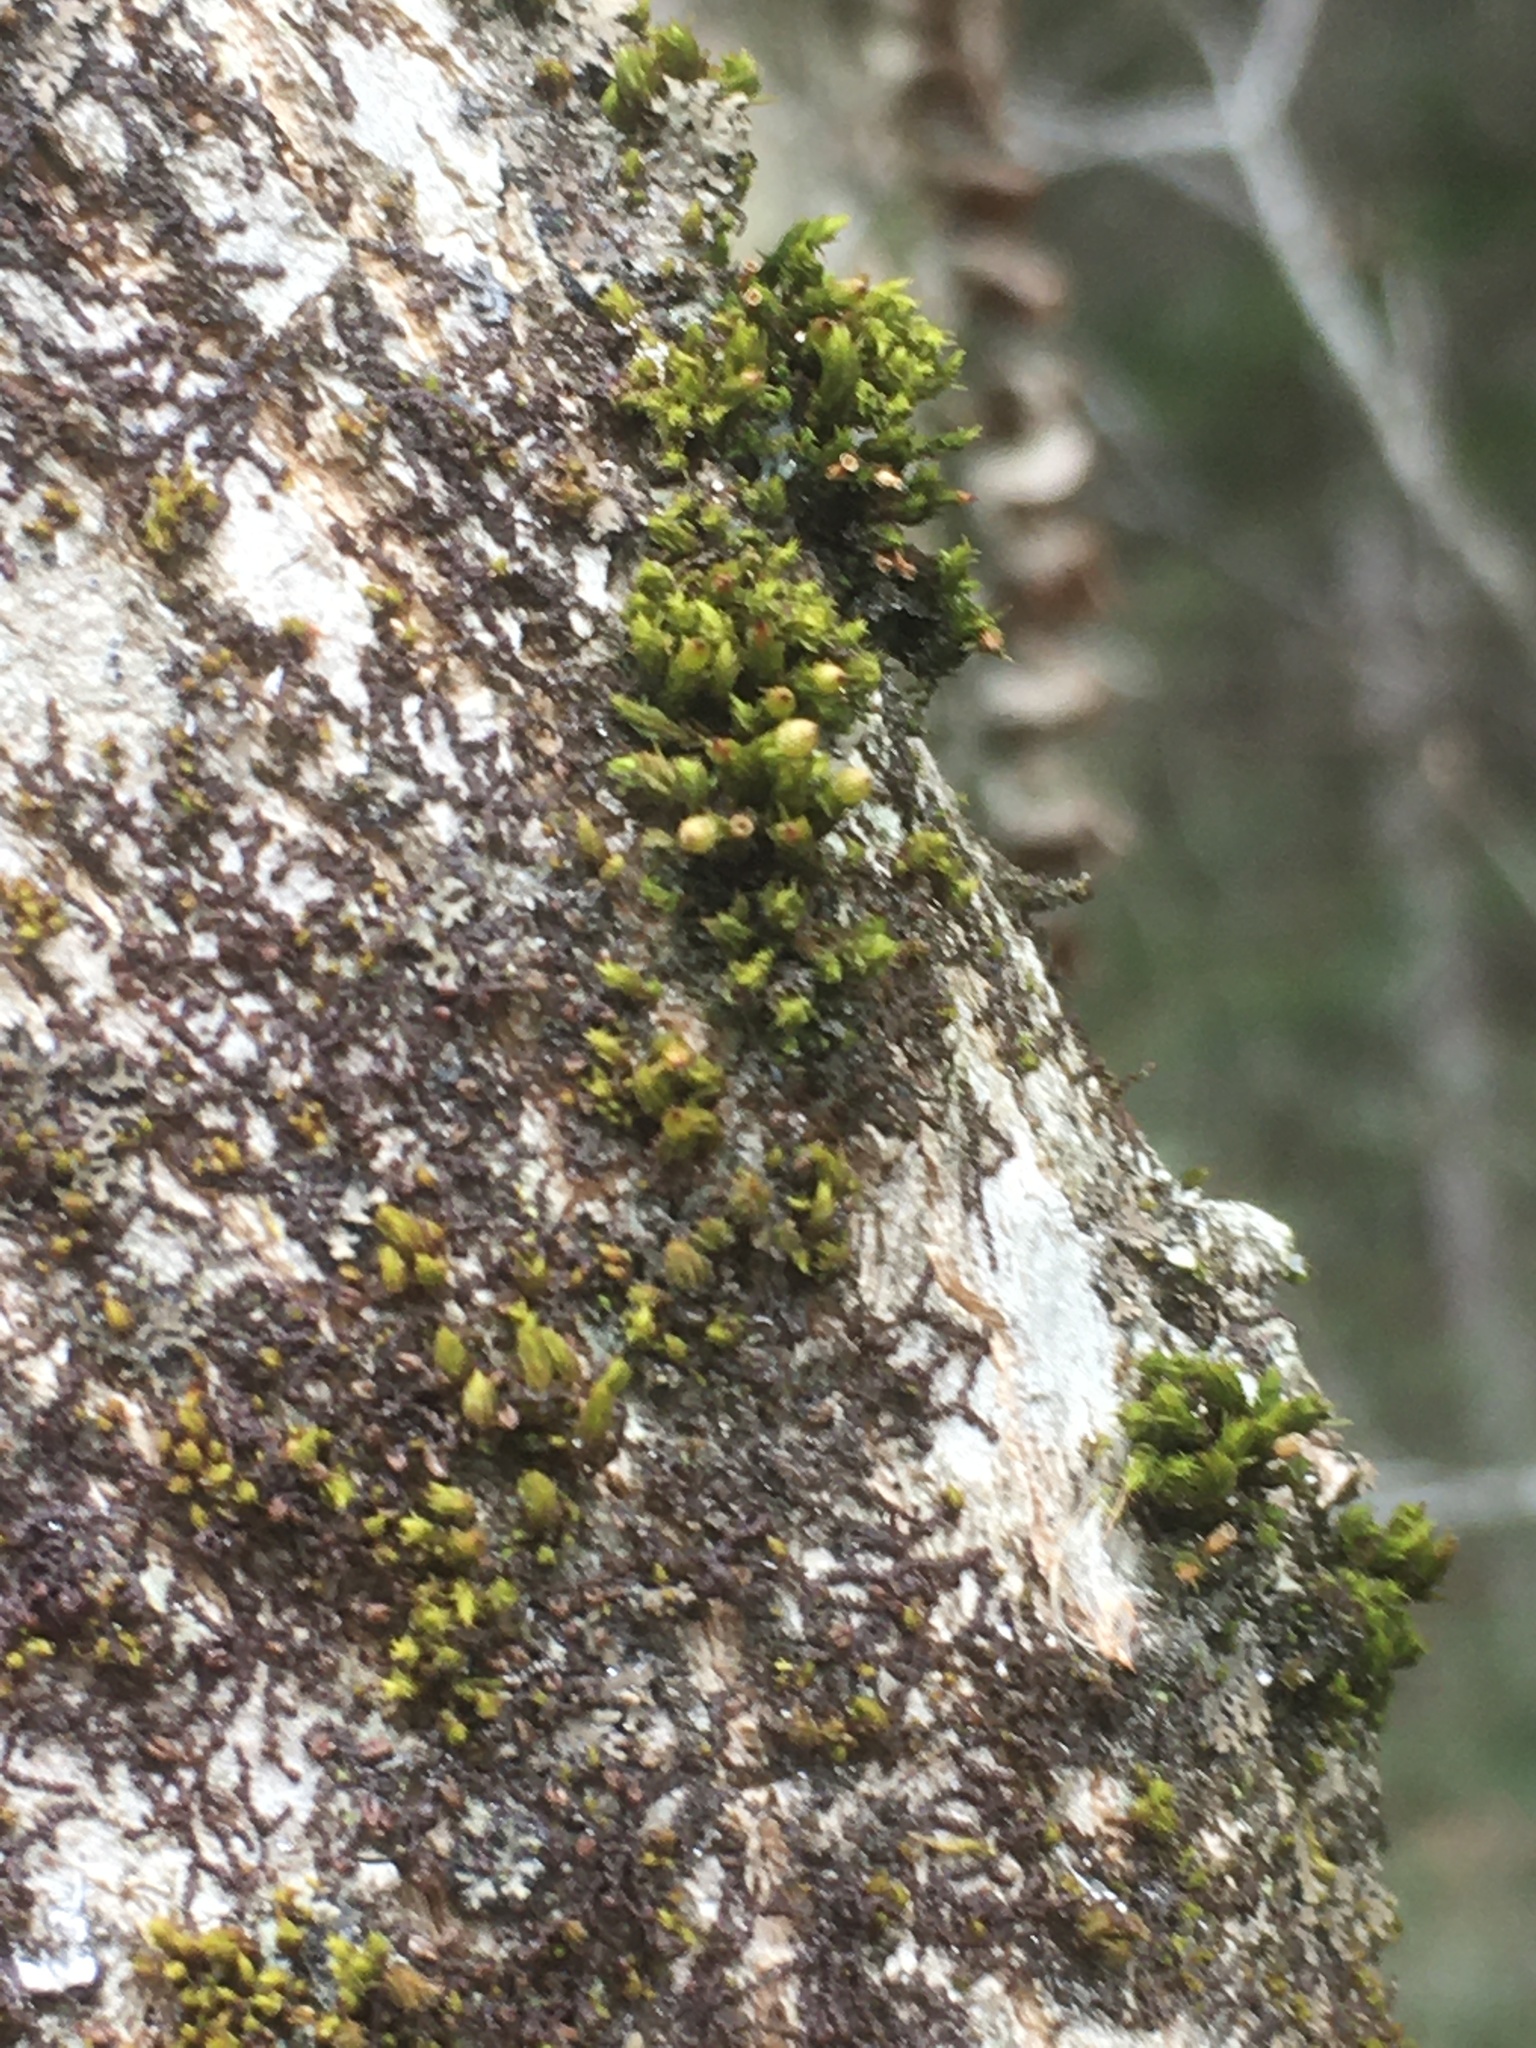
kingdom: Plantae
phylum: Bryophyta
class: Bryopsida
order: Orthotrichales
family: Orthotrichaceae
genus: Orthotrichum
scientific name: Orthotrichum stellatum
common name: Starlike bristle moss
